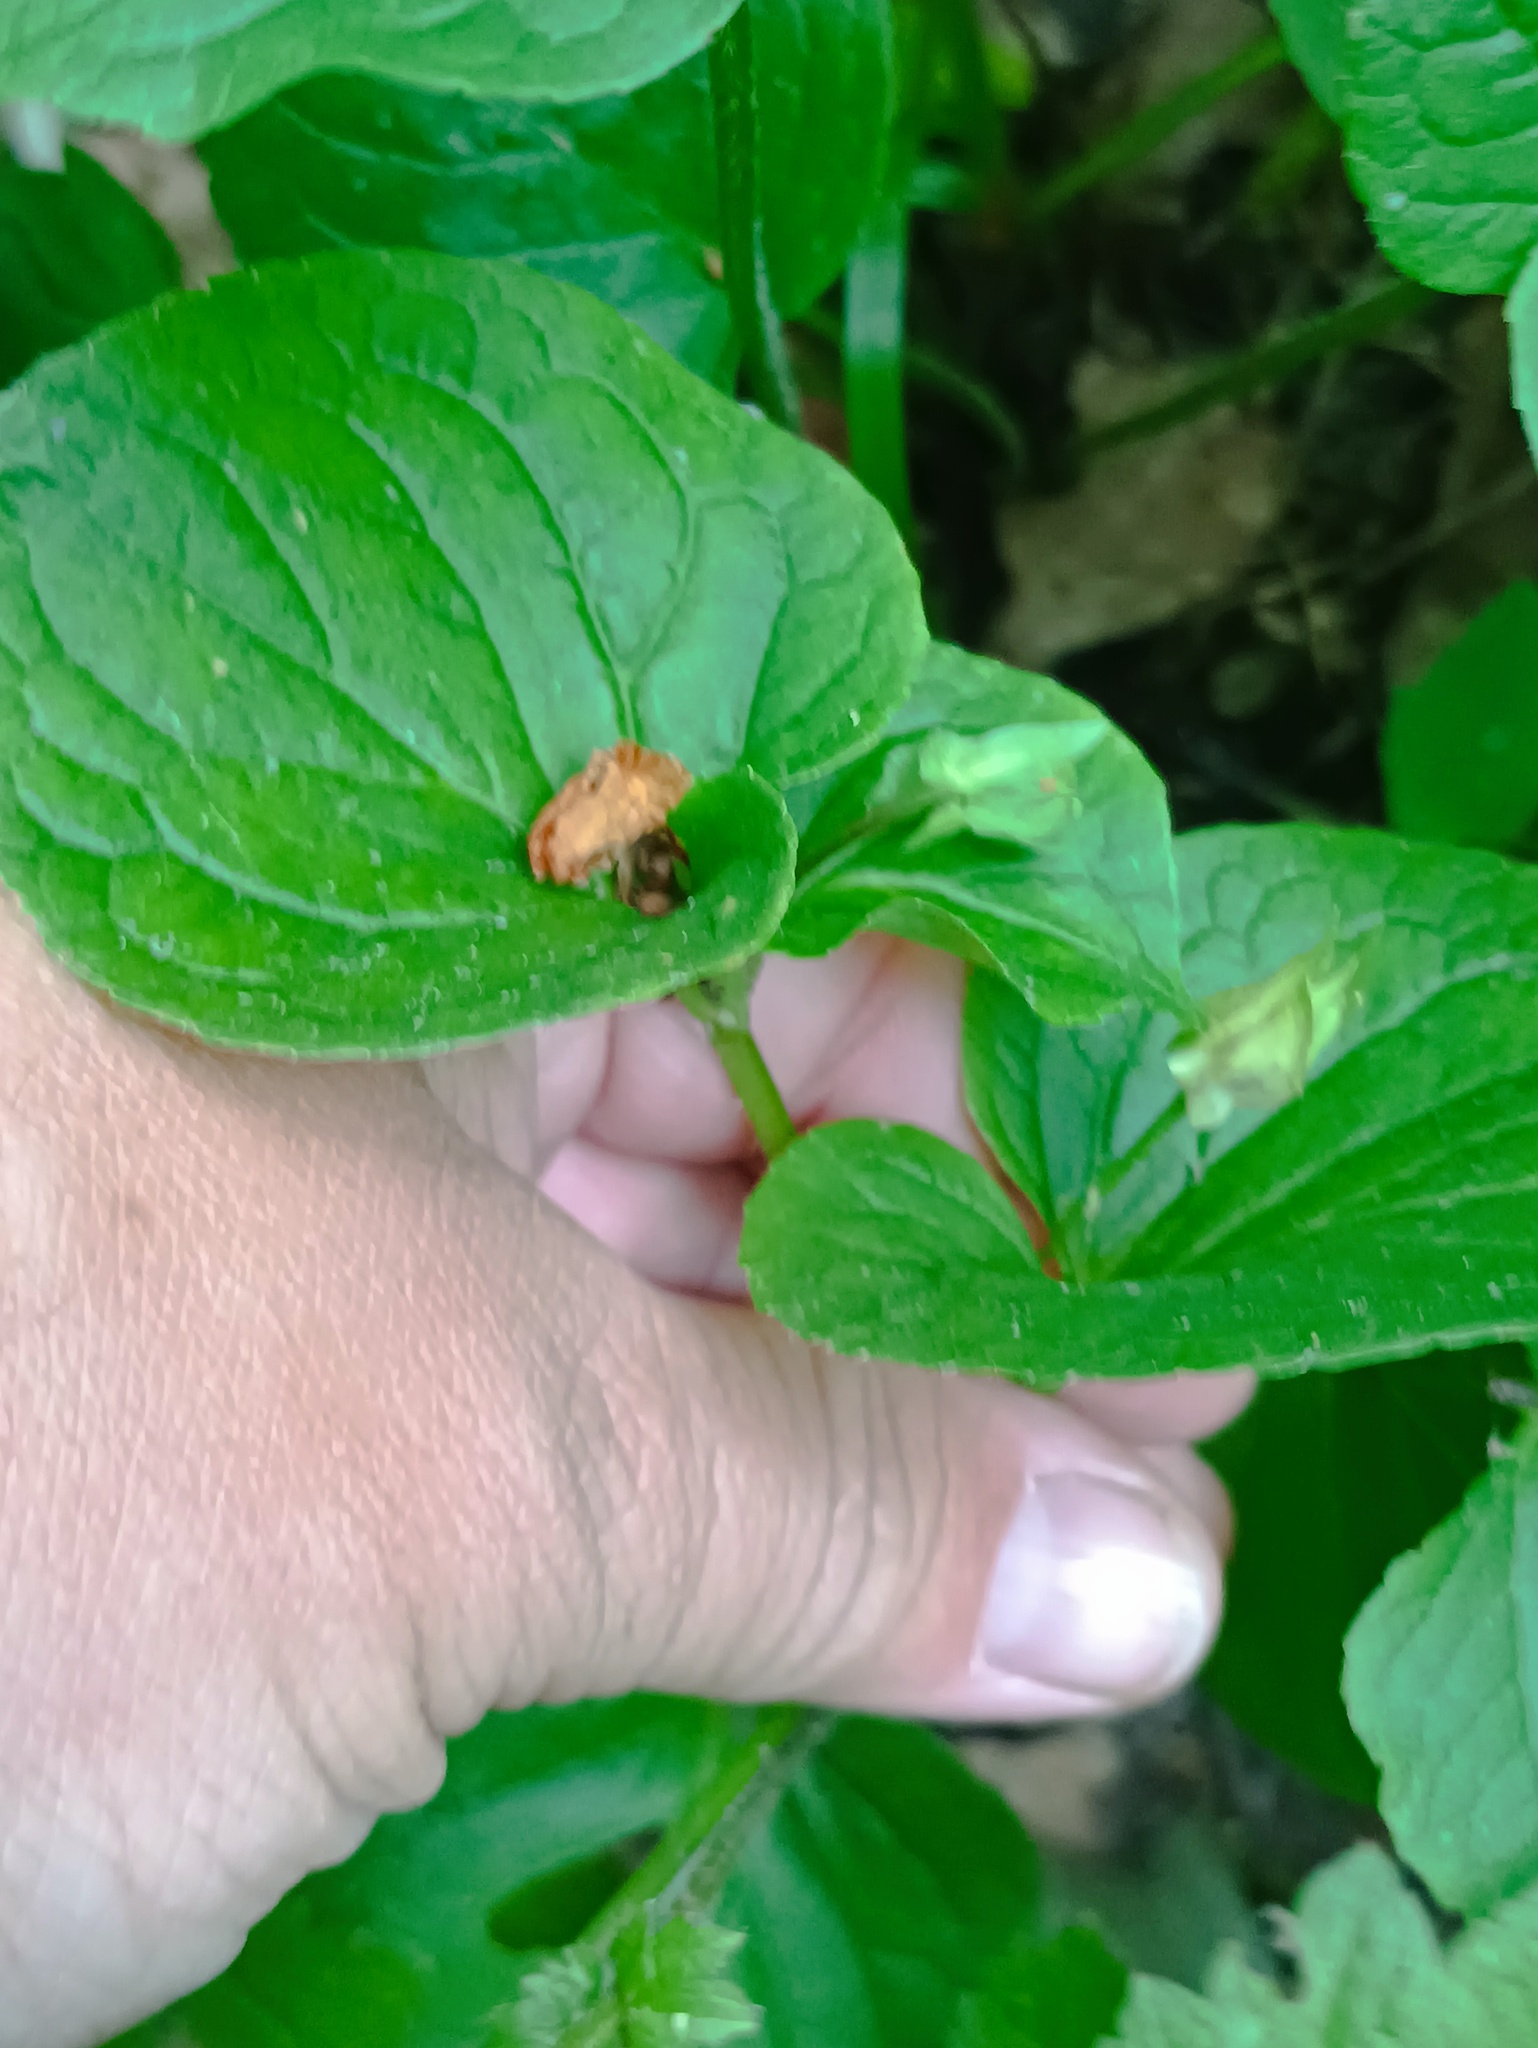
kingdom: Plantae
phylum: Tracheophyta
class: Magnoliopsida
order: Malpighiales
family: Violaceae
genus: Viola
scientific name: Viola mirabilis
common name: Wonder violet
